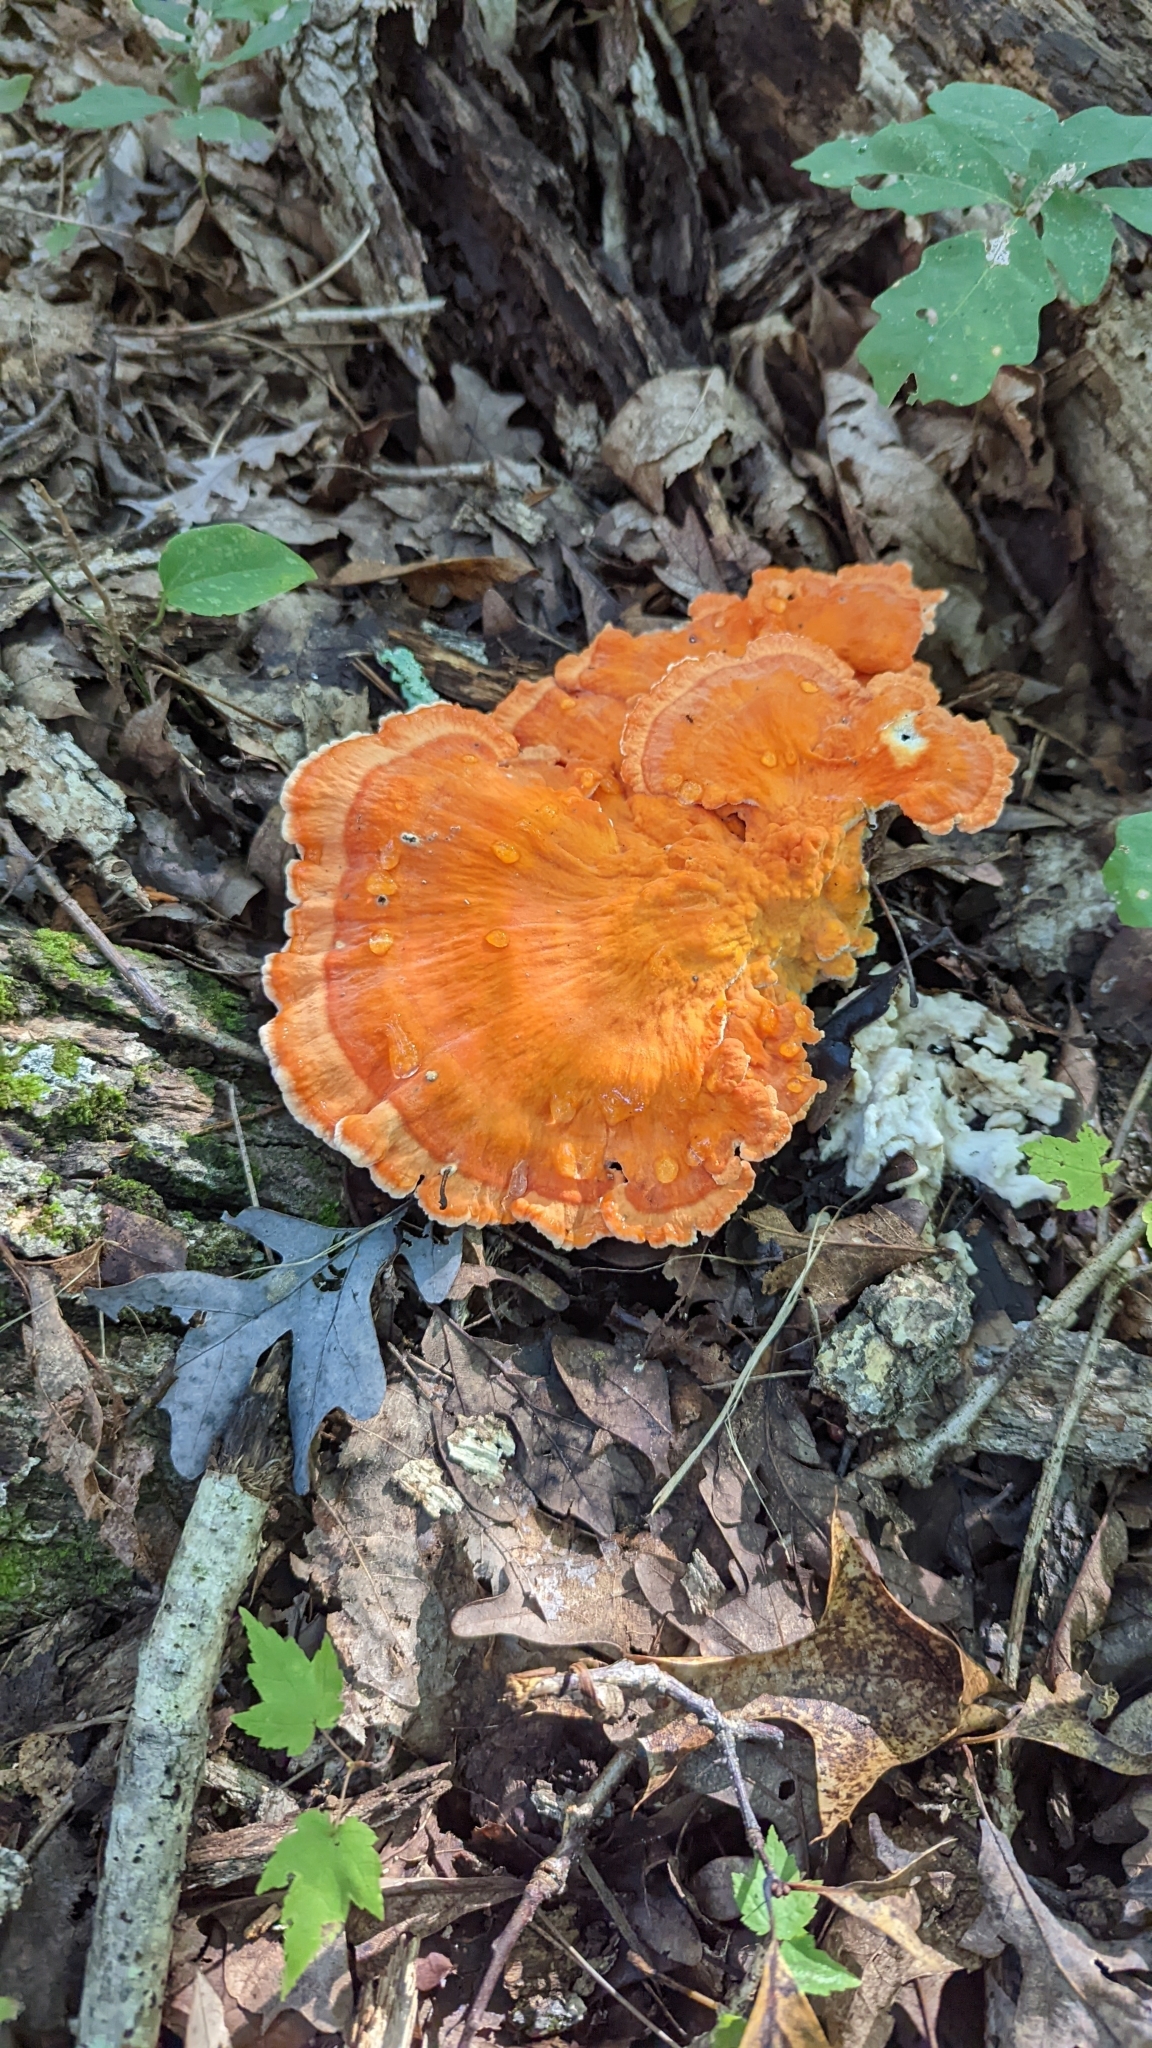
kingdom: Fungi
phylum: Basidiomycota
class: Agaricomycetes
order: Polyporales
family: Laetiporaceae
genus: Laetiporus
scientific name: Laetiporus sulphureus
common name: Chicken of the woods
